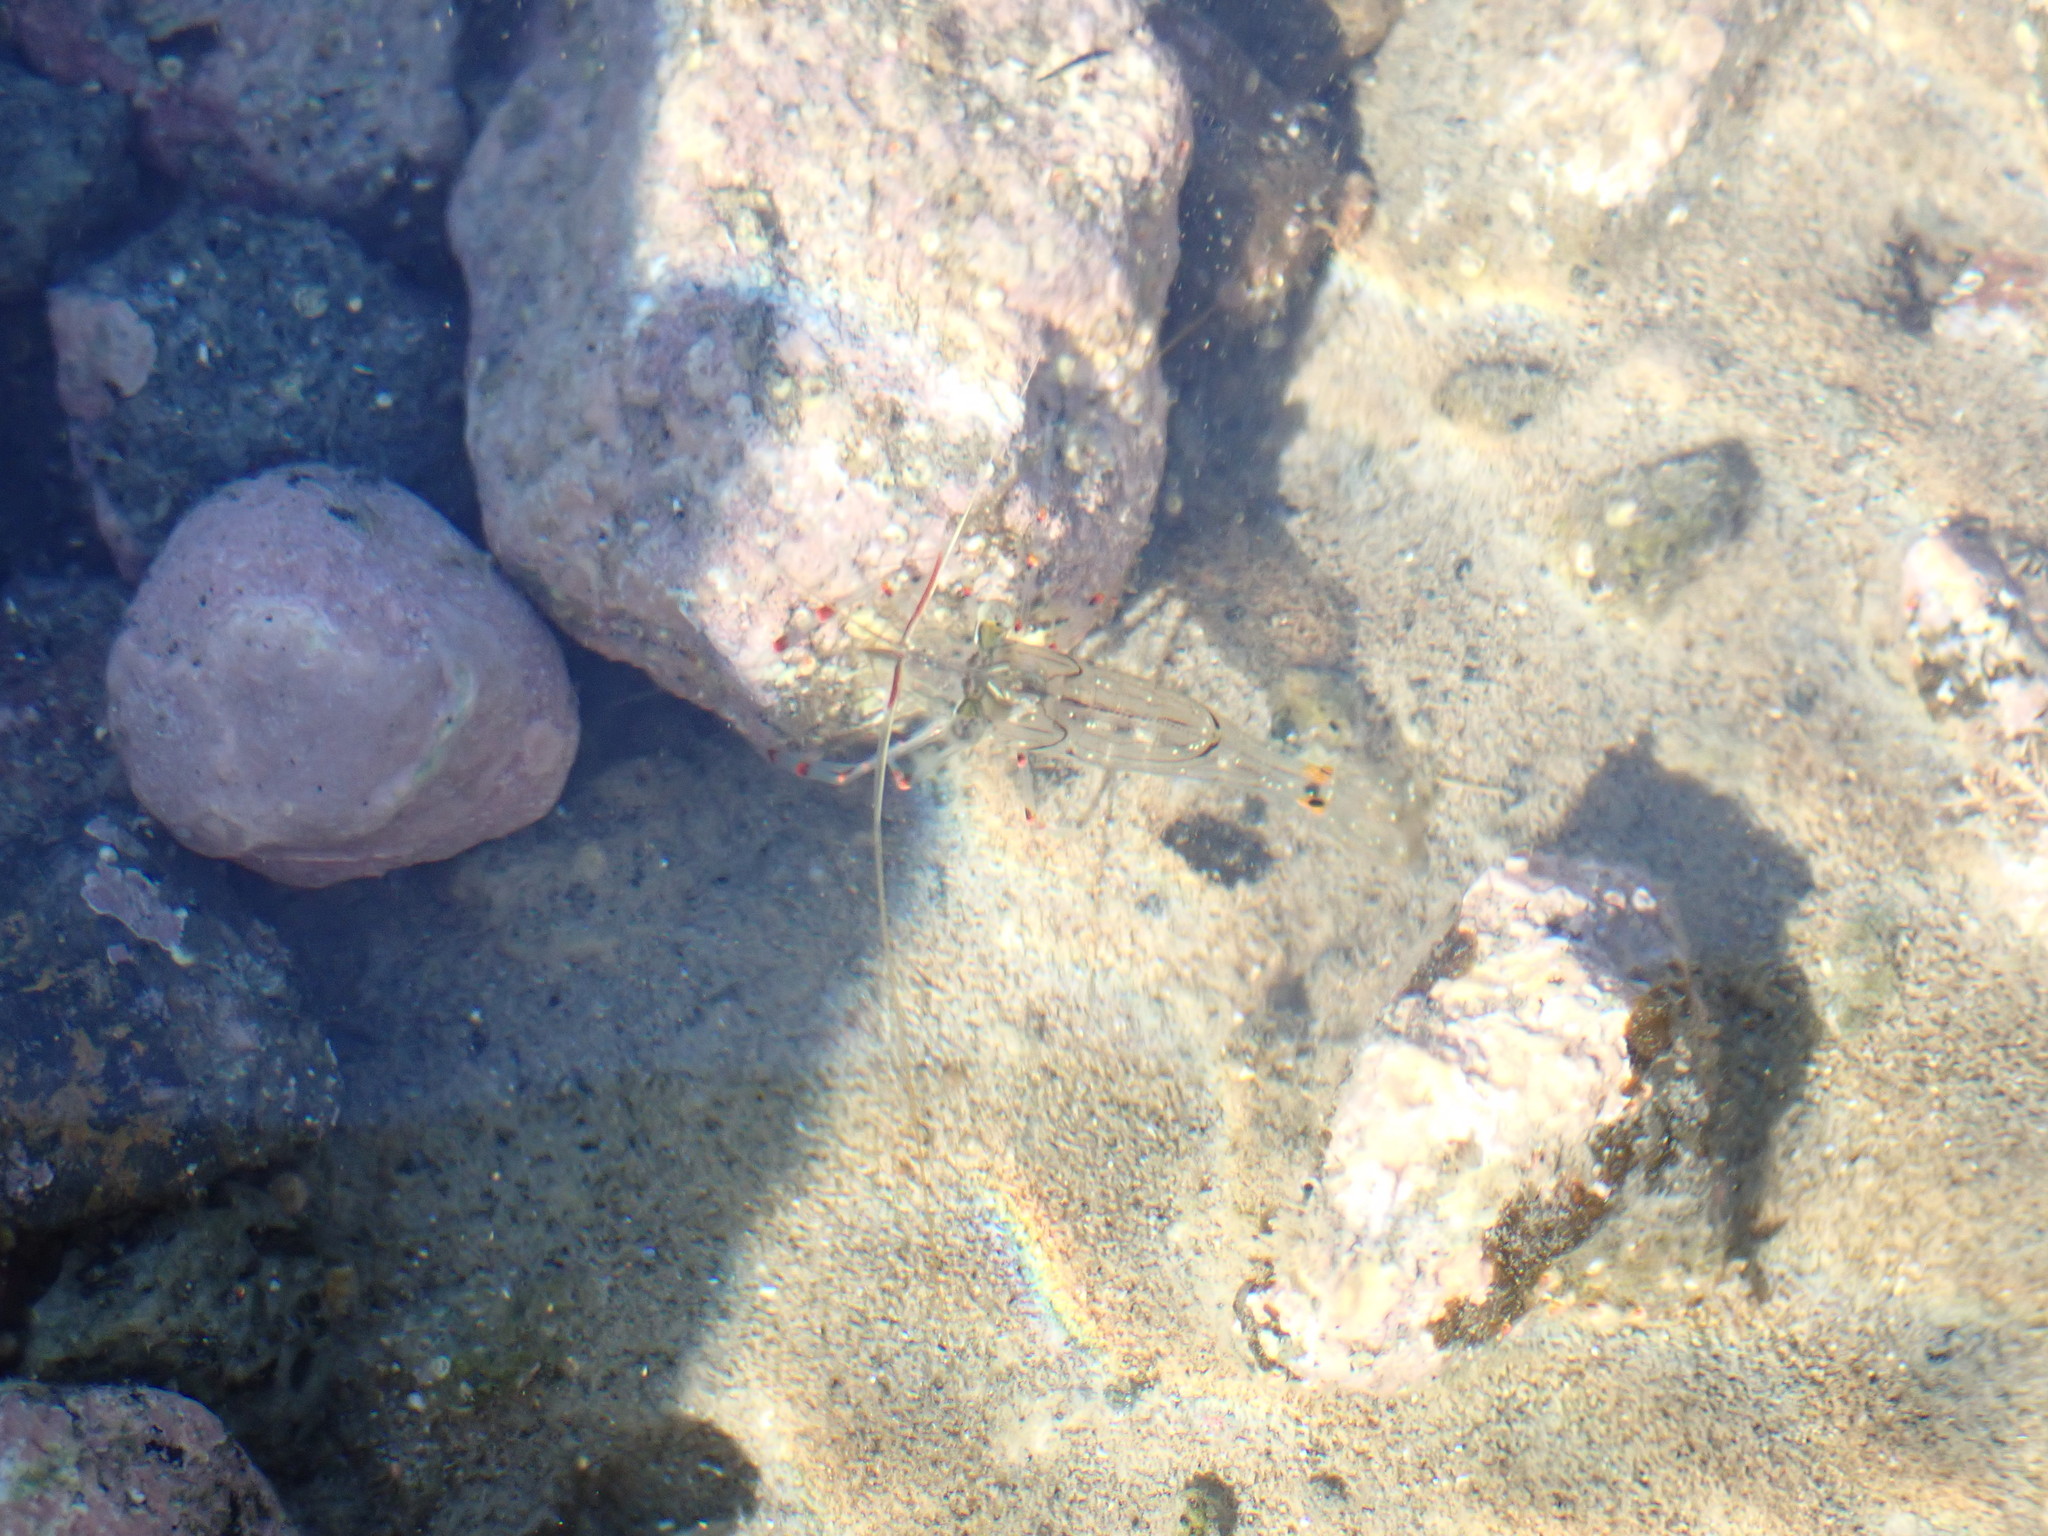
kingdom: Animalia
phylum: Arthropoda
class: Malacostraca
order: Decapoda
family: Palaemonidae
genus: Palaemon
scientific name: Palaemon affinis
